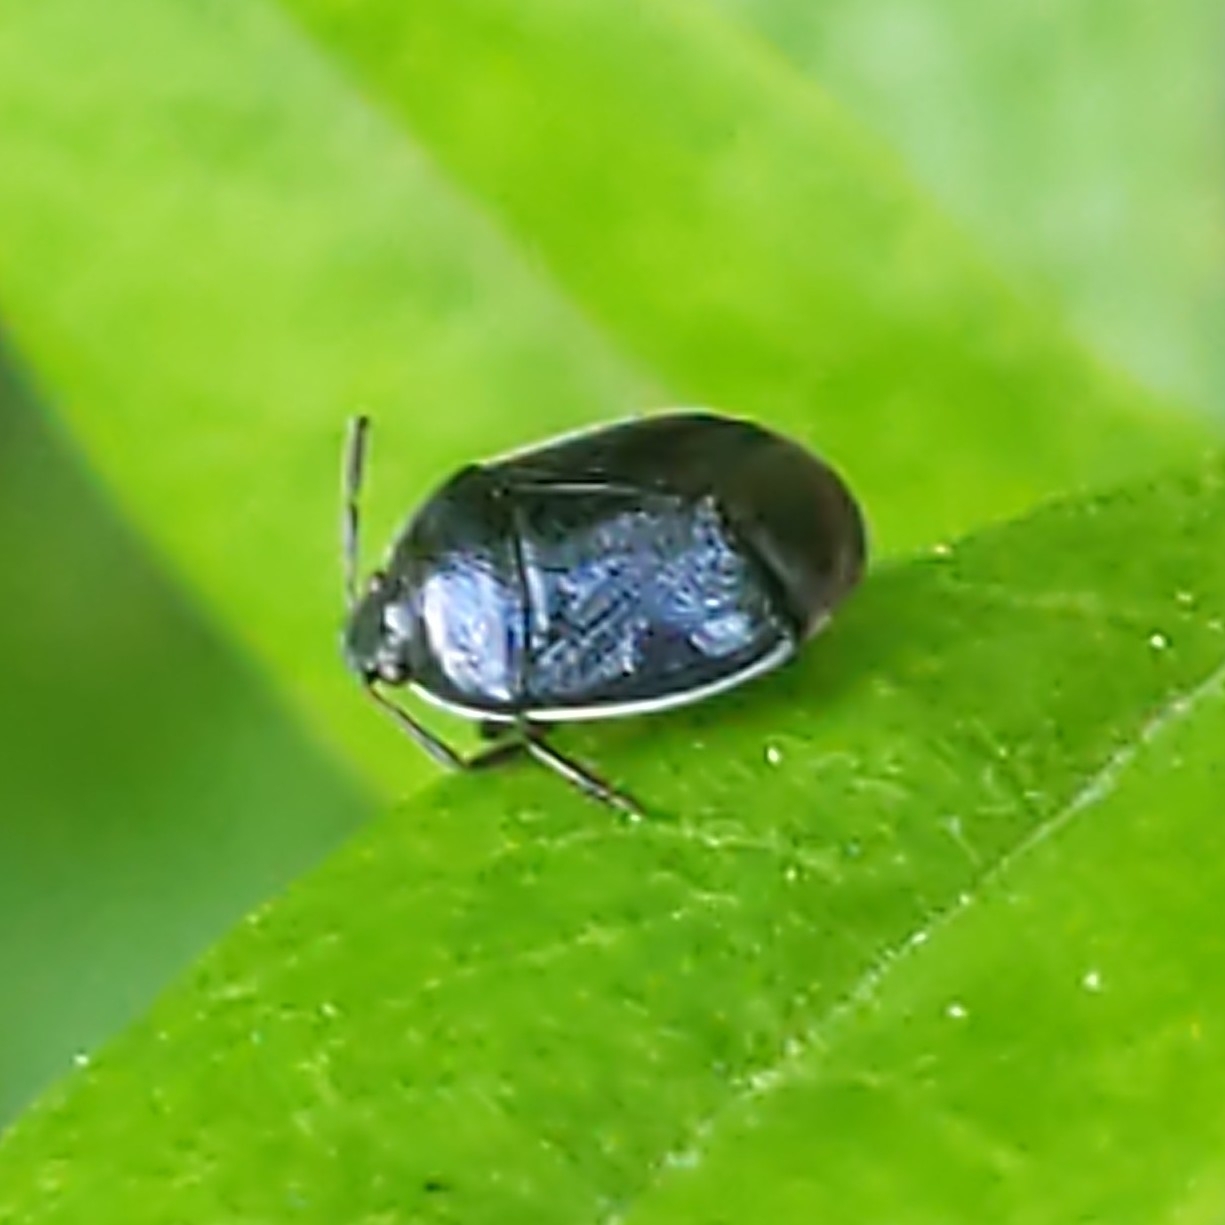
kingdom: Animalia
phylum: Arthropoda
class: Insecta
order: Hemiptera
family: Cydnidae
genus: Sehirus
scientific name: Sehirus cinctus
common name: White-margined burrower bug
